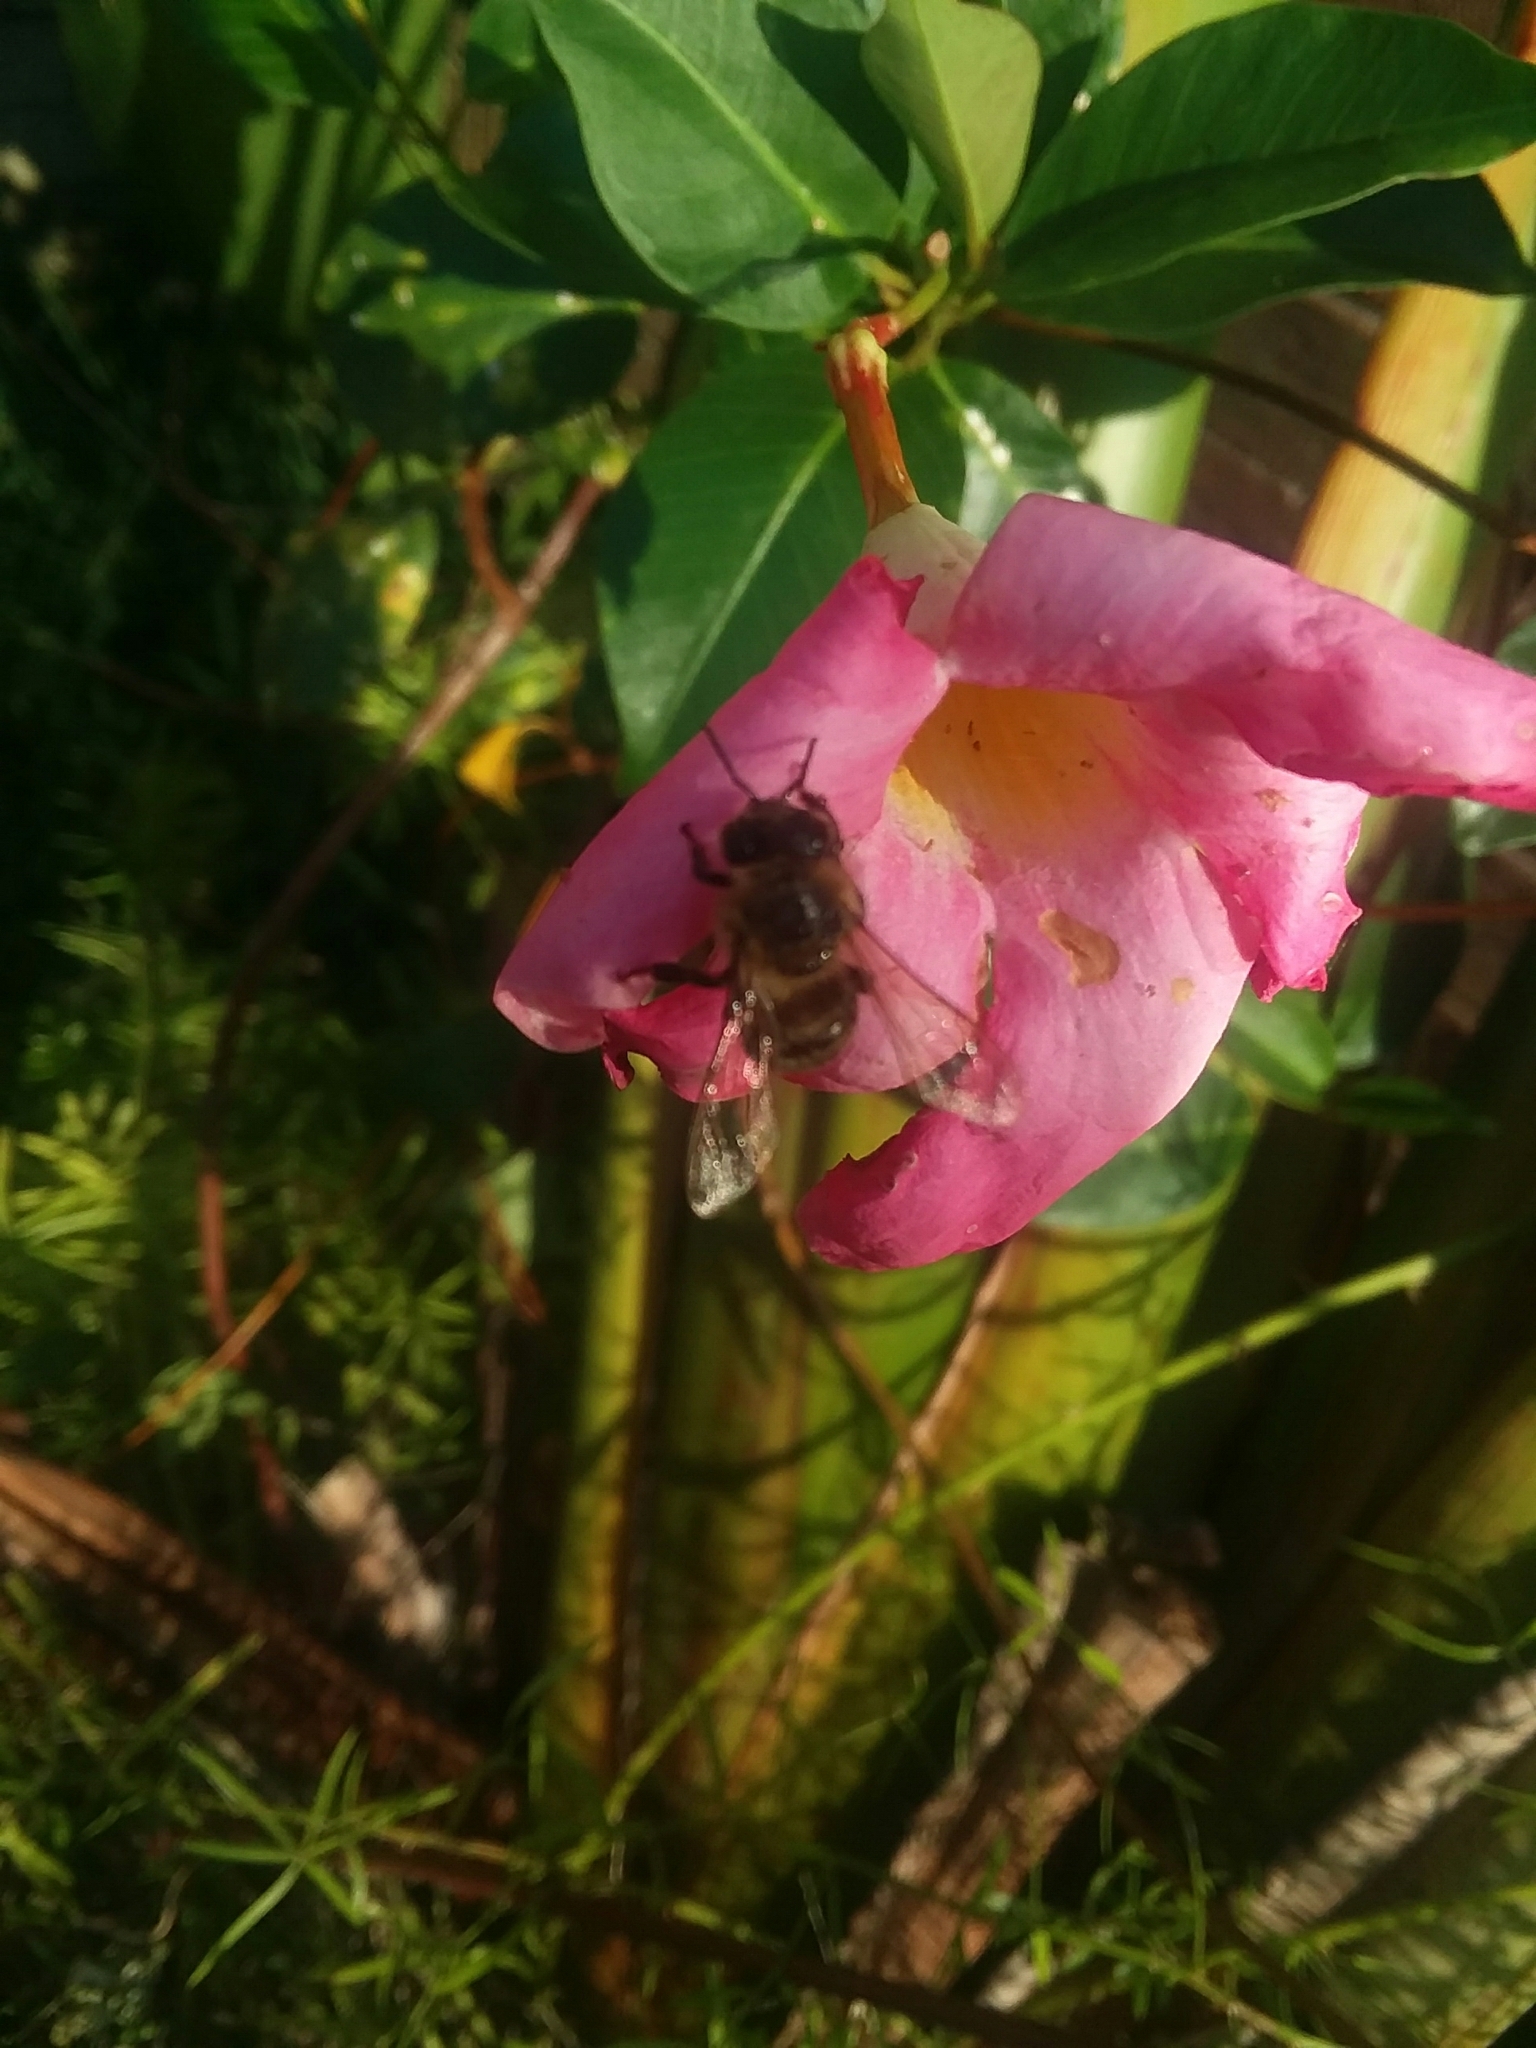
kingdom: Animalia
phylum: Arthropoda
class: Insecta
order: Hymenoptera
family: Apidae
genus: Apis
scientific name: Apis mellifera
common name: Honey bee
